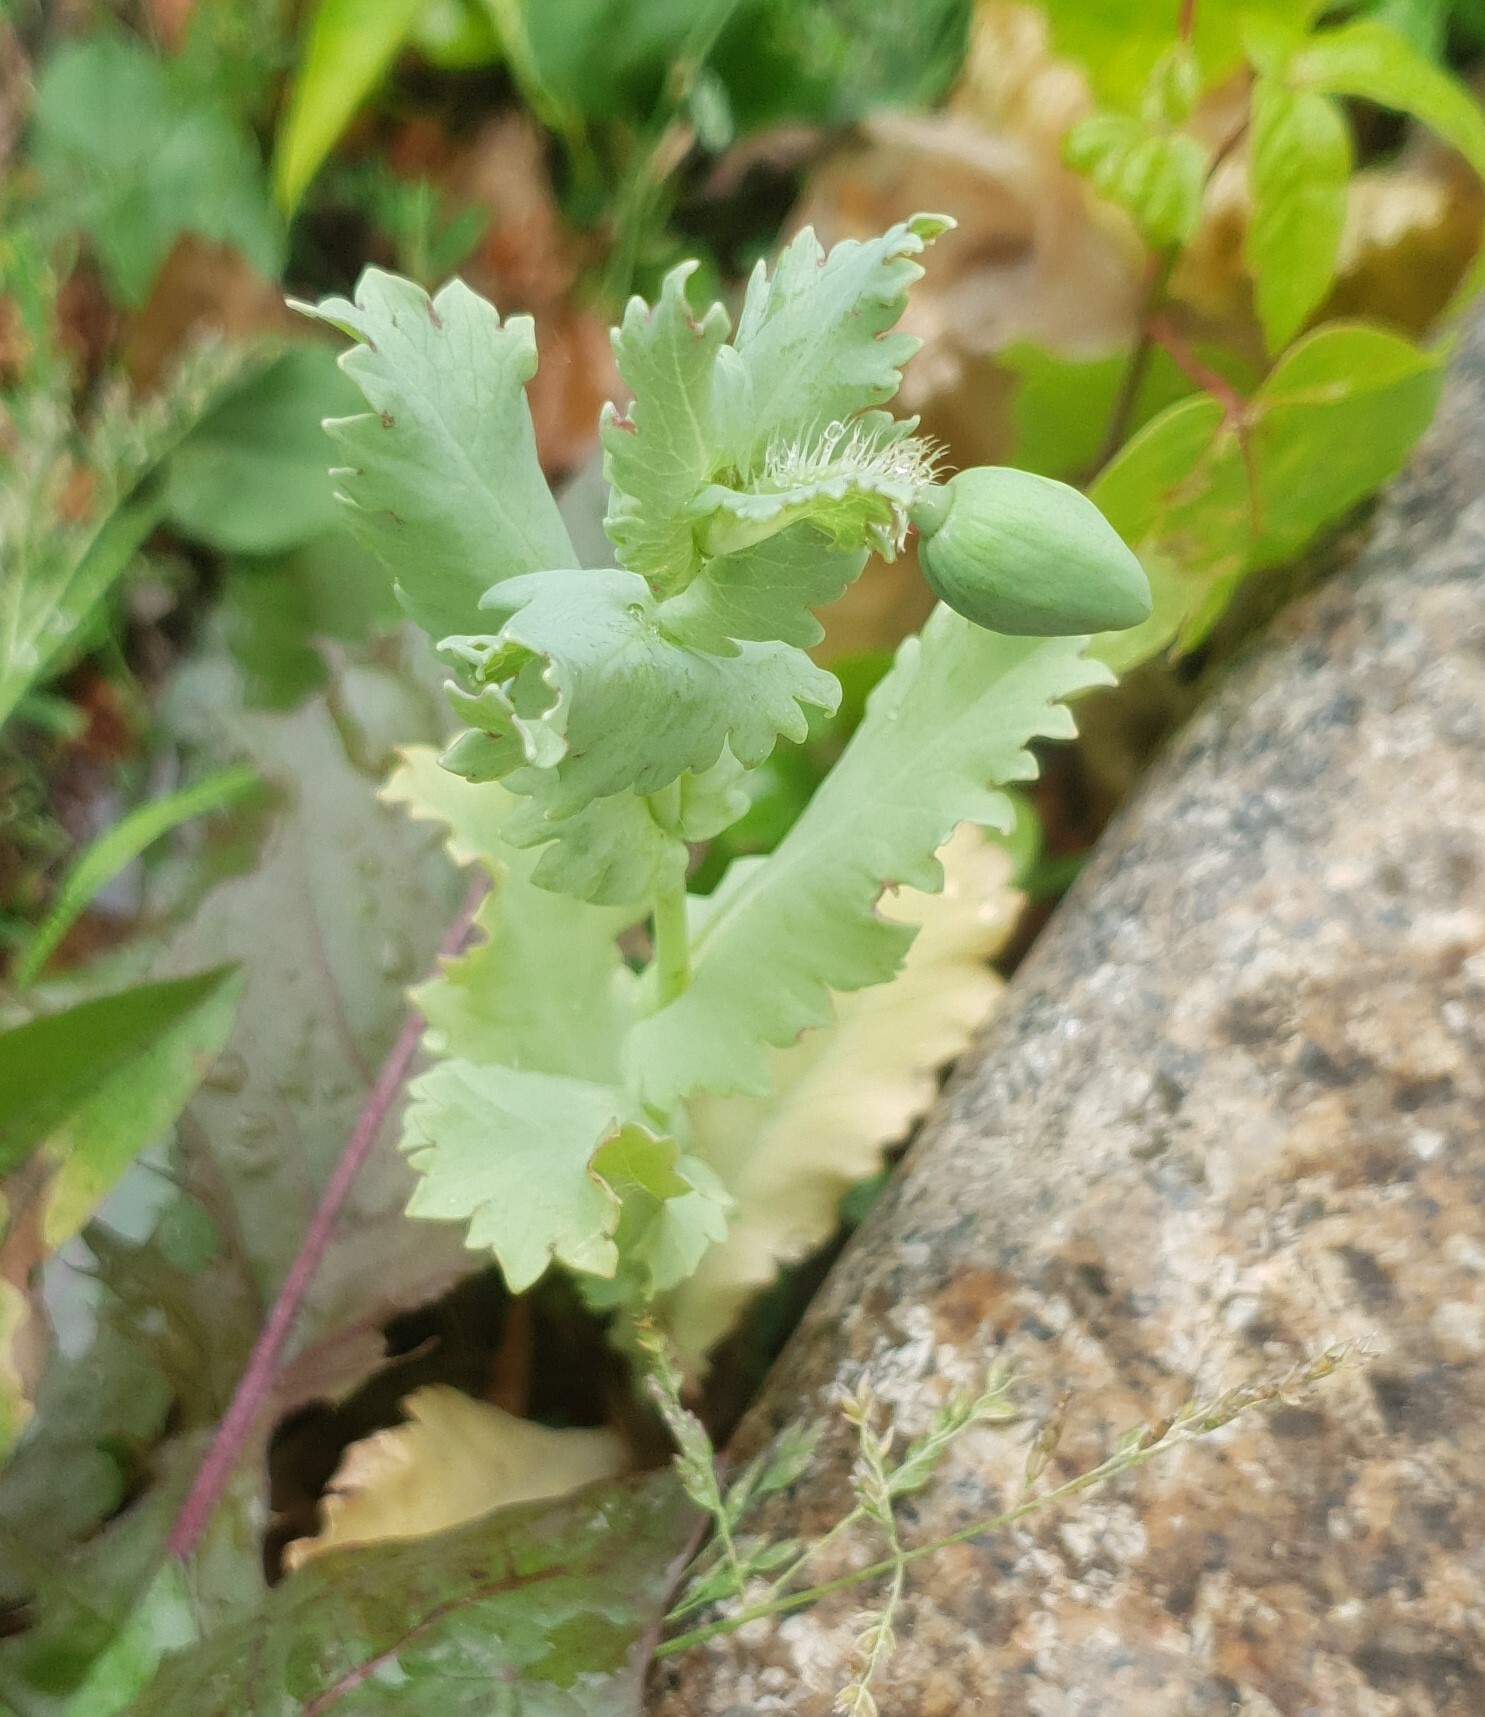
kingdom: Plantae
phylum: Tracheophyta
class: Magnoliopsida
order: Ranunculales
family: Papaveraceae
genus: Papaver
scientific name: Papaver somniferum
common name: Opium poppy
